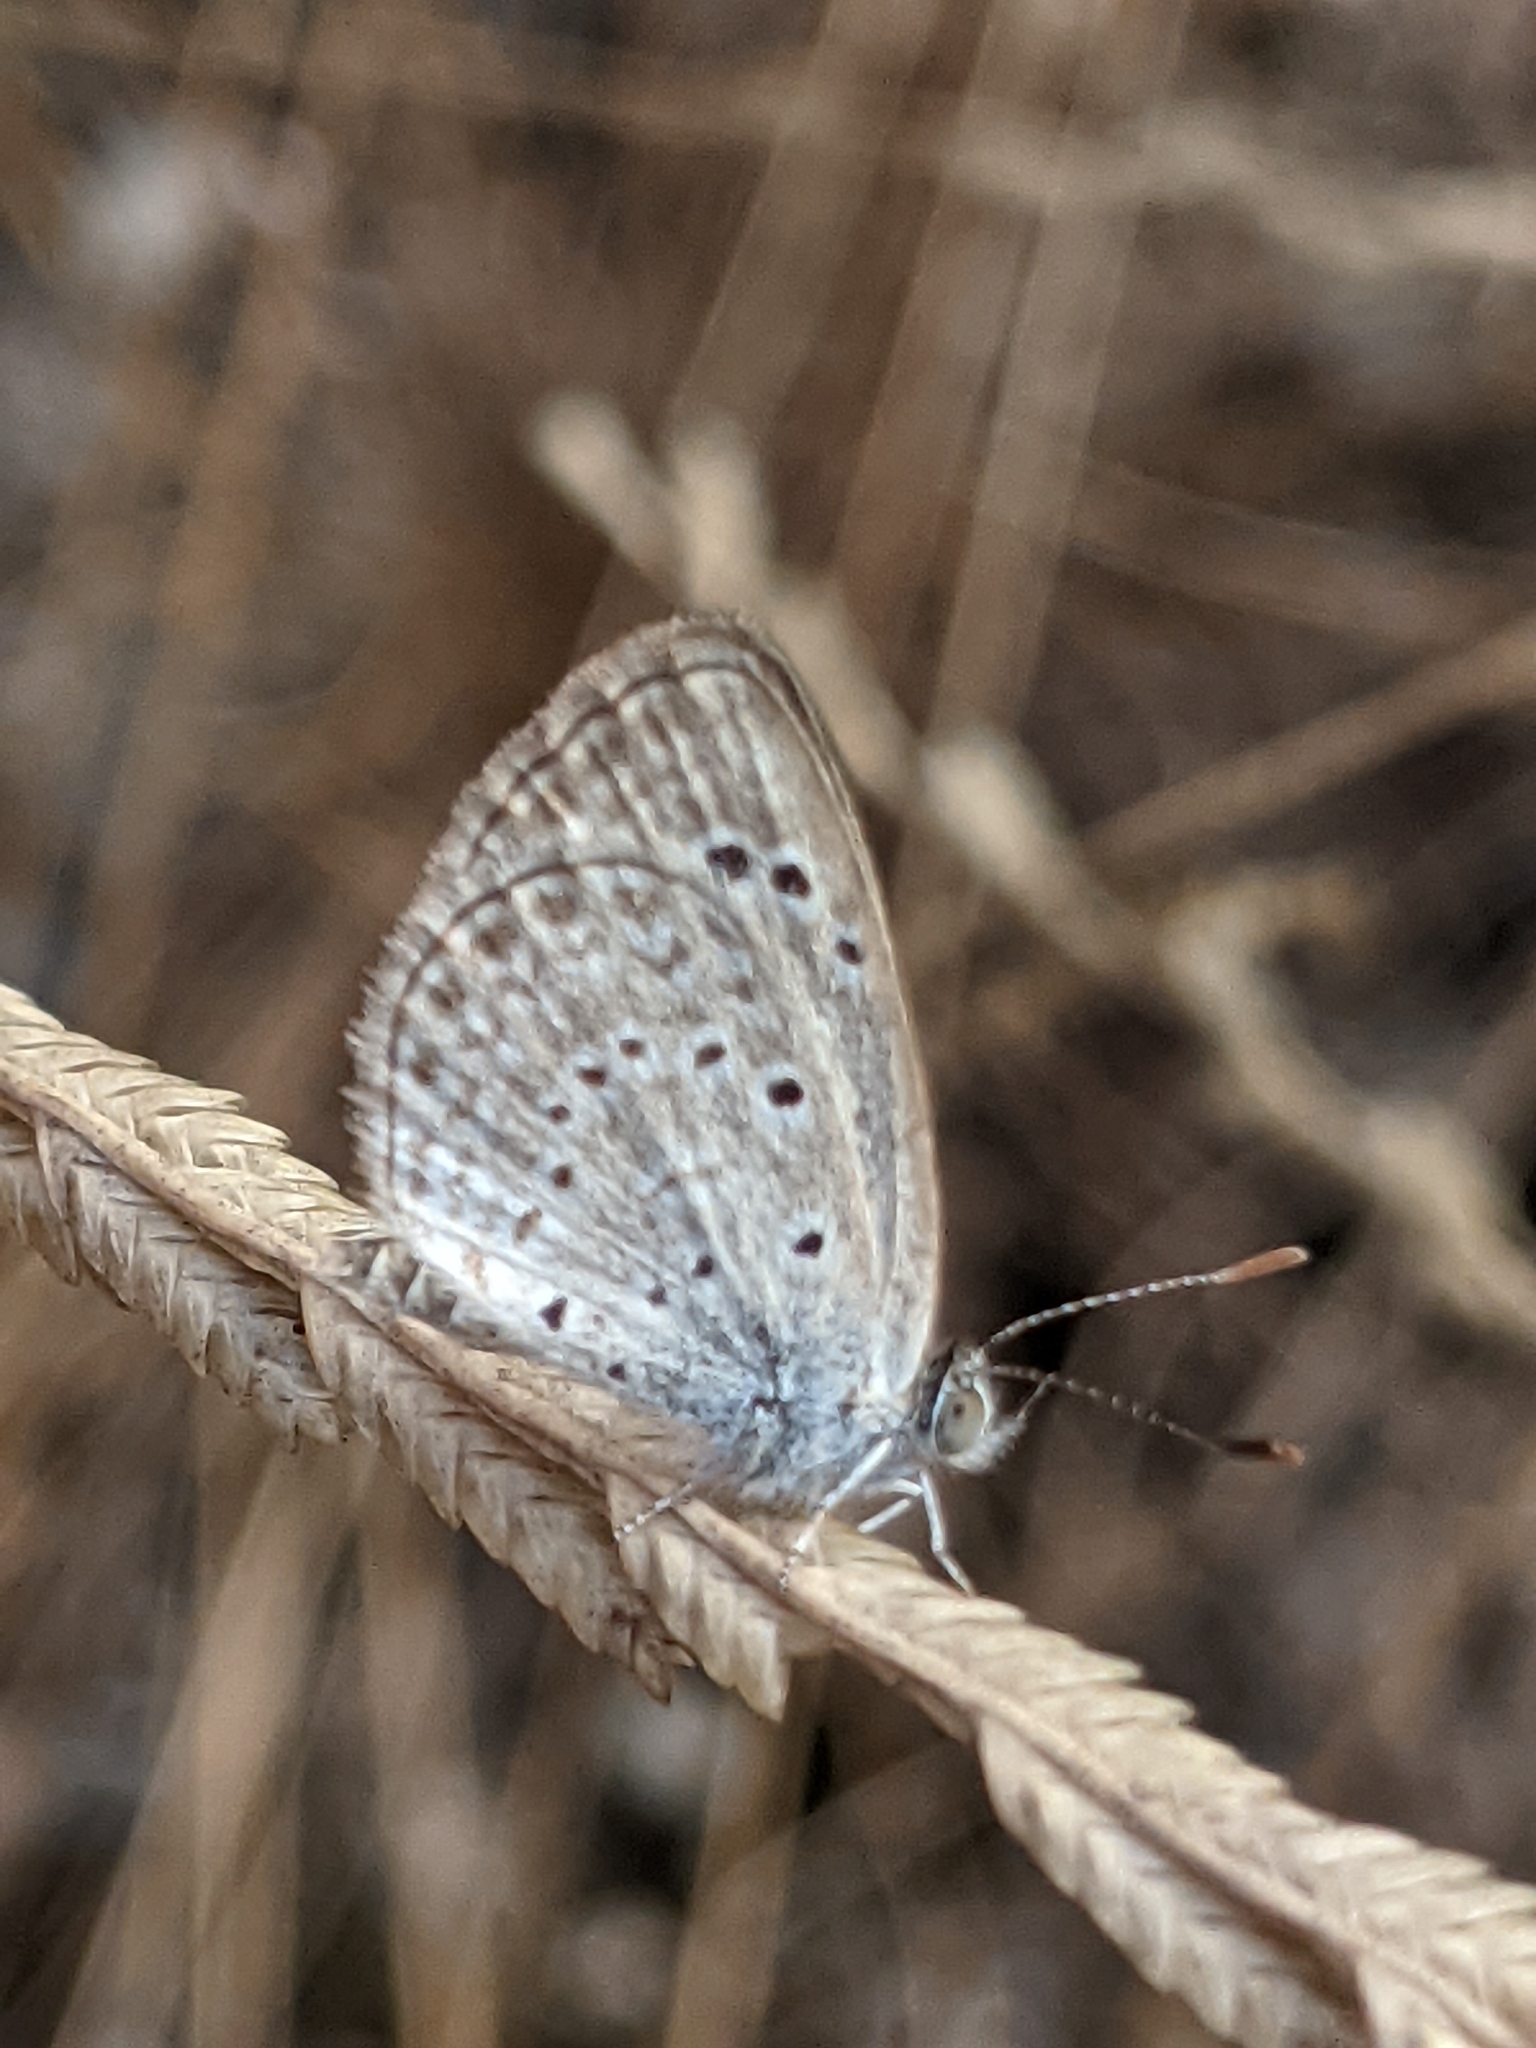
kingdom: Animalia
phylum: Arthropoda
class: Insecta
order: Lepidoptera
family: Lycaenidae
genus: Zizeeria
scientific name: Zizeeria karsandra
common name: Dark grass blue
